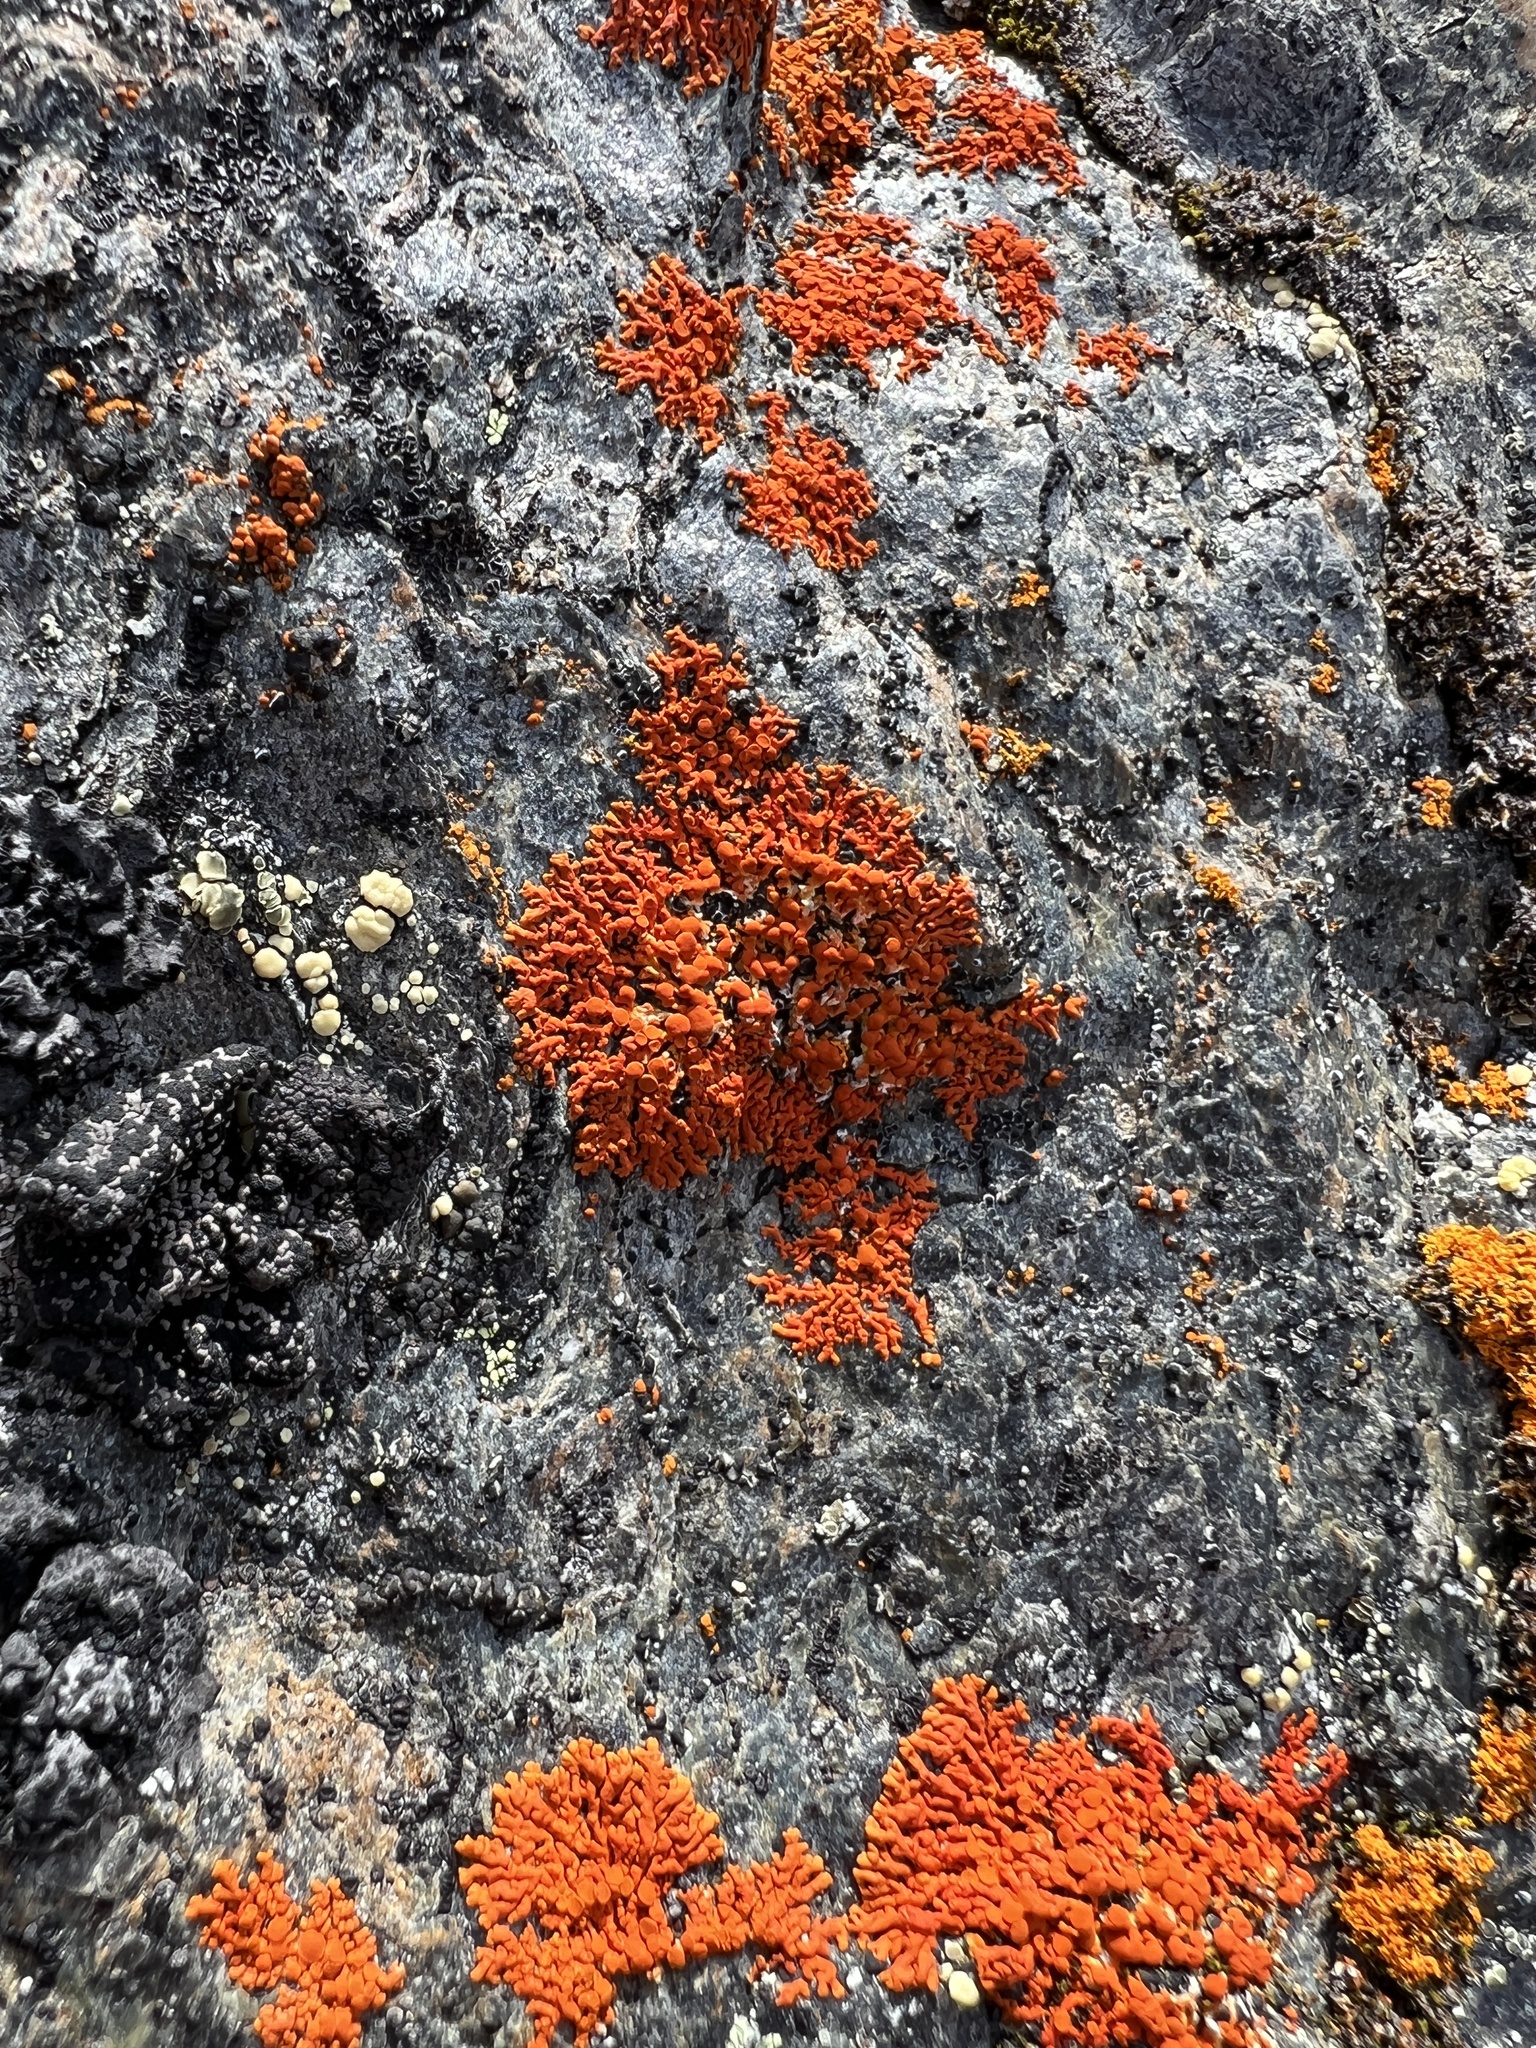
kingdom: Fungi
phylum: Ascomycota
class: Lecanoromycetes
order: Teloschistales
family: Teloschistaceae
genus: Xanthoria
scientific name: Xanthoria elegans
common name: Elegant sunburst lichen
